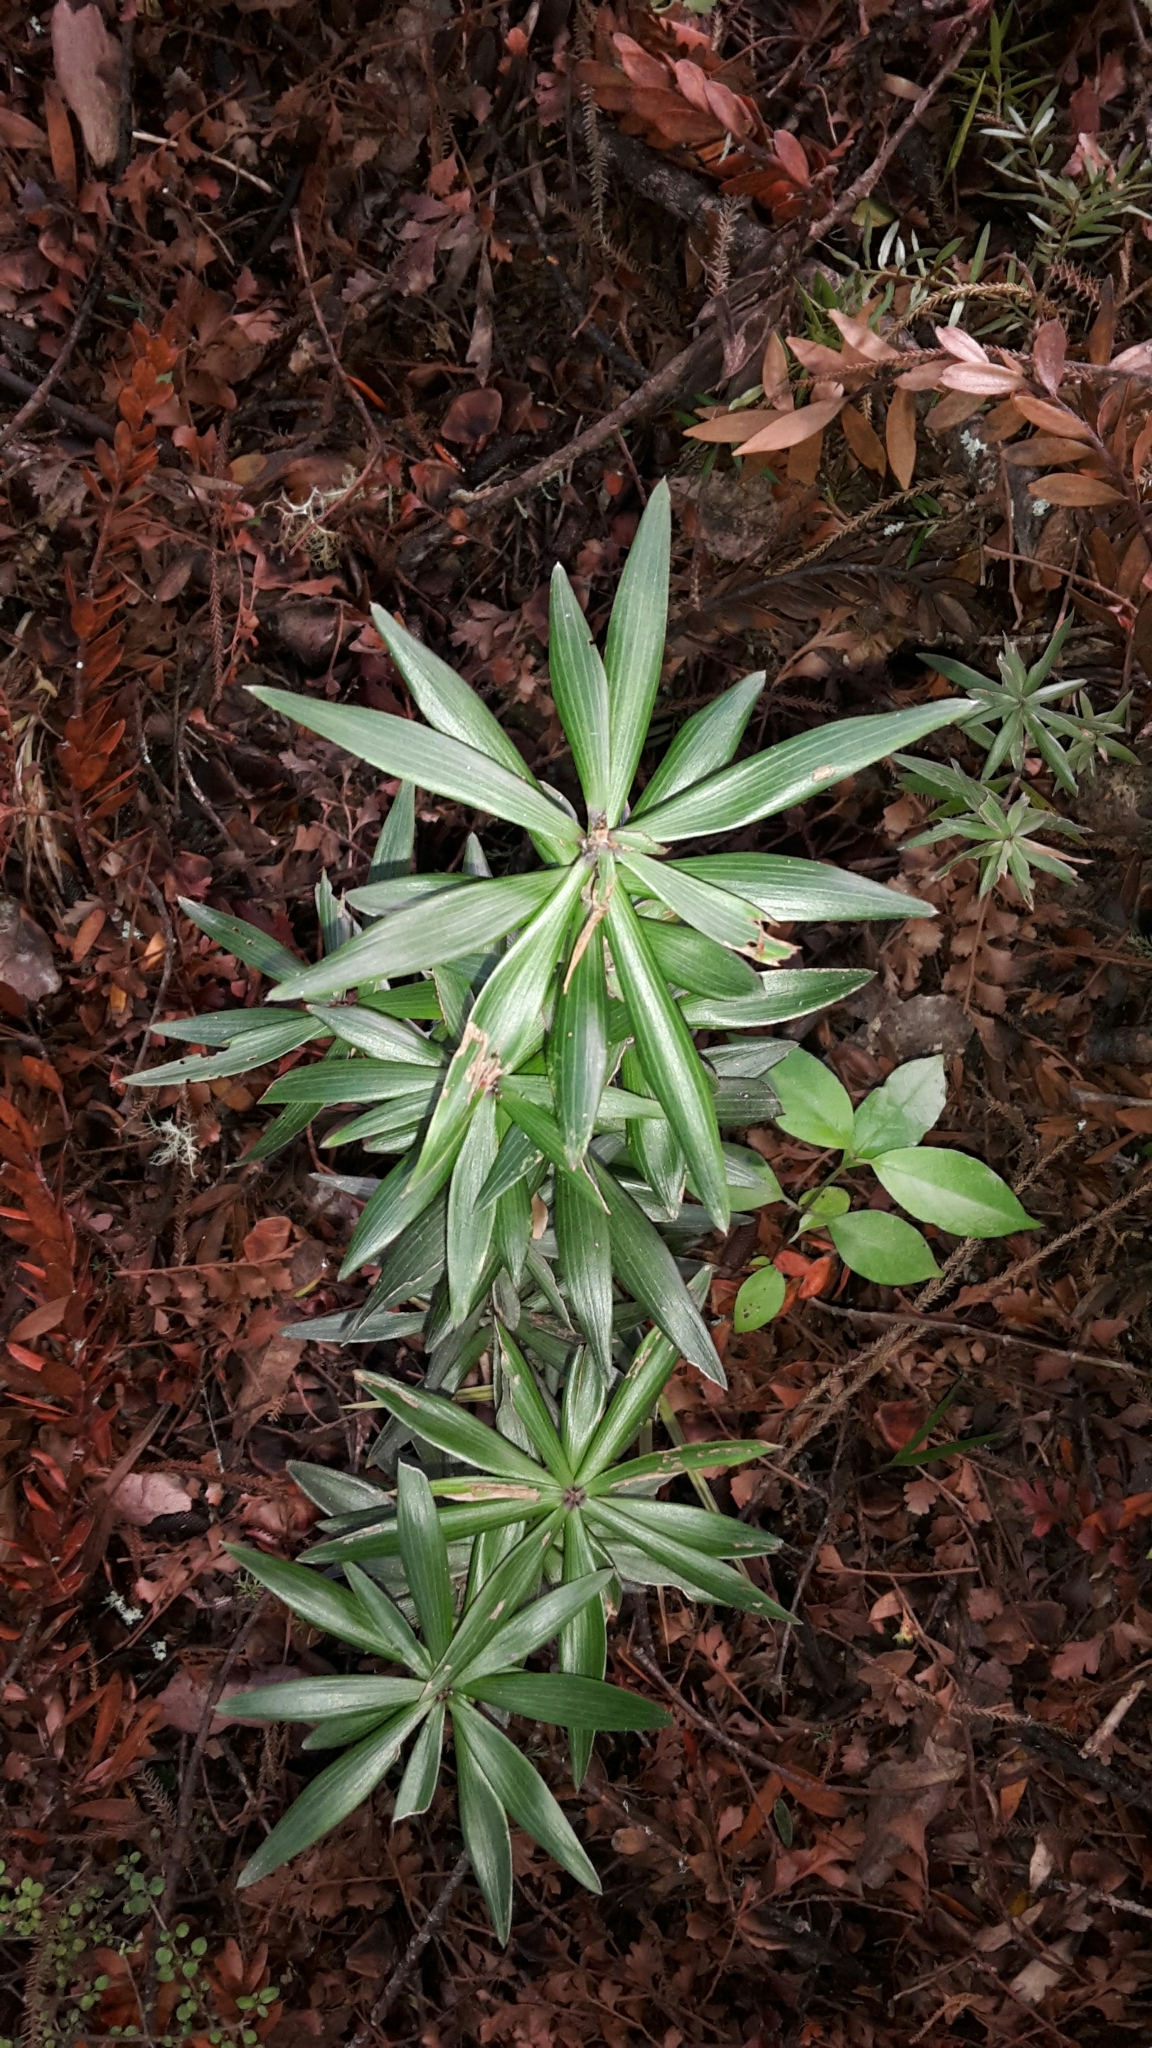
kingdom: Plantae
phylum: Tracheophyta
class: Magnoliopsida
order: Ericales
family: Ericaceae
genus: Leucopogon
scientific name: Leucopogon fasciculatus
